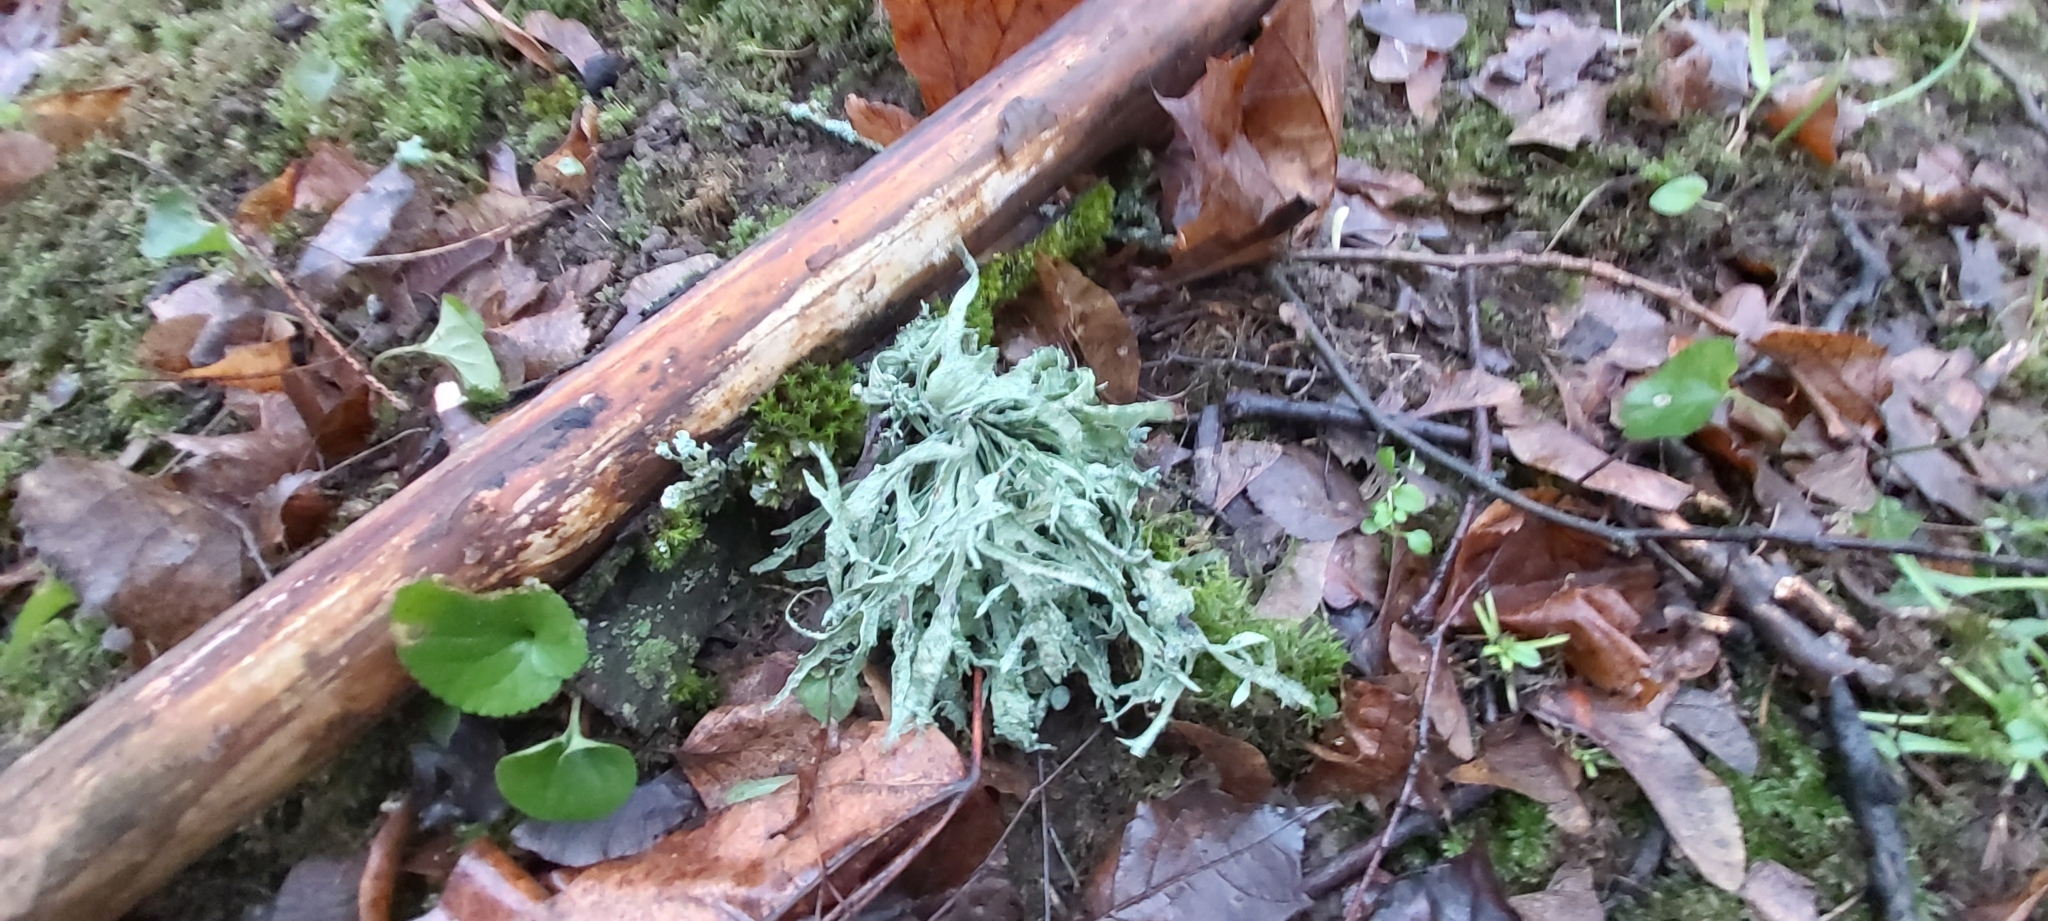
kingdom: Fungi
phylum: Ascomycota
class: Lecanoromycetes
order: Lecanorales
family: Ramalinaceae
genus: Ramalina
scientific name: Ramalina fraxinea
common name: Cartilage lichen
